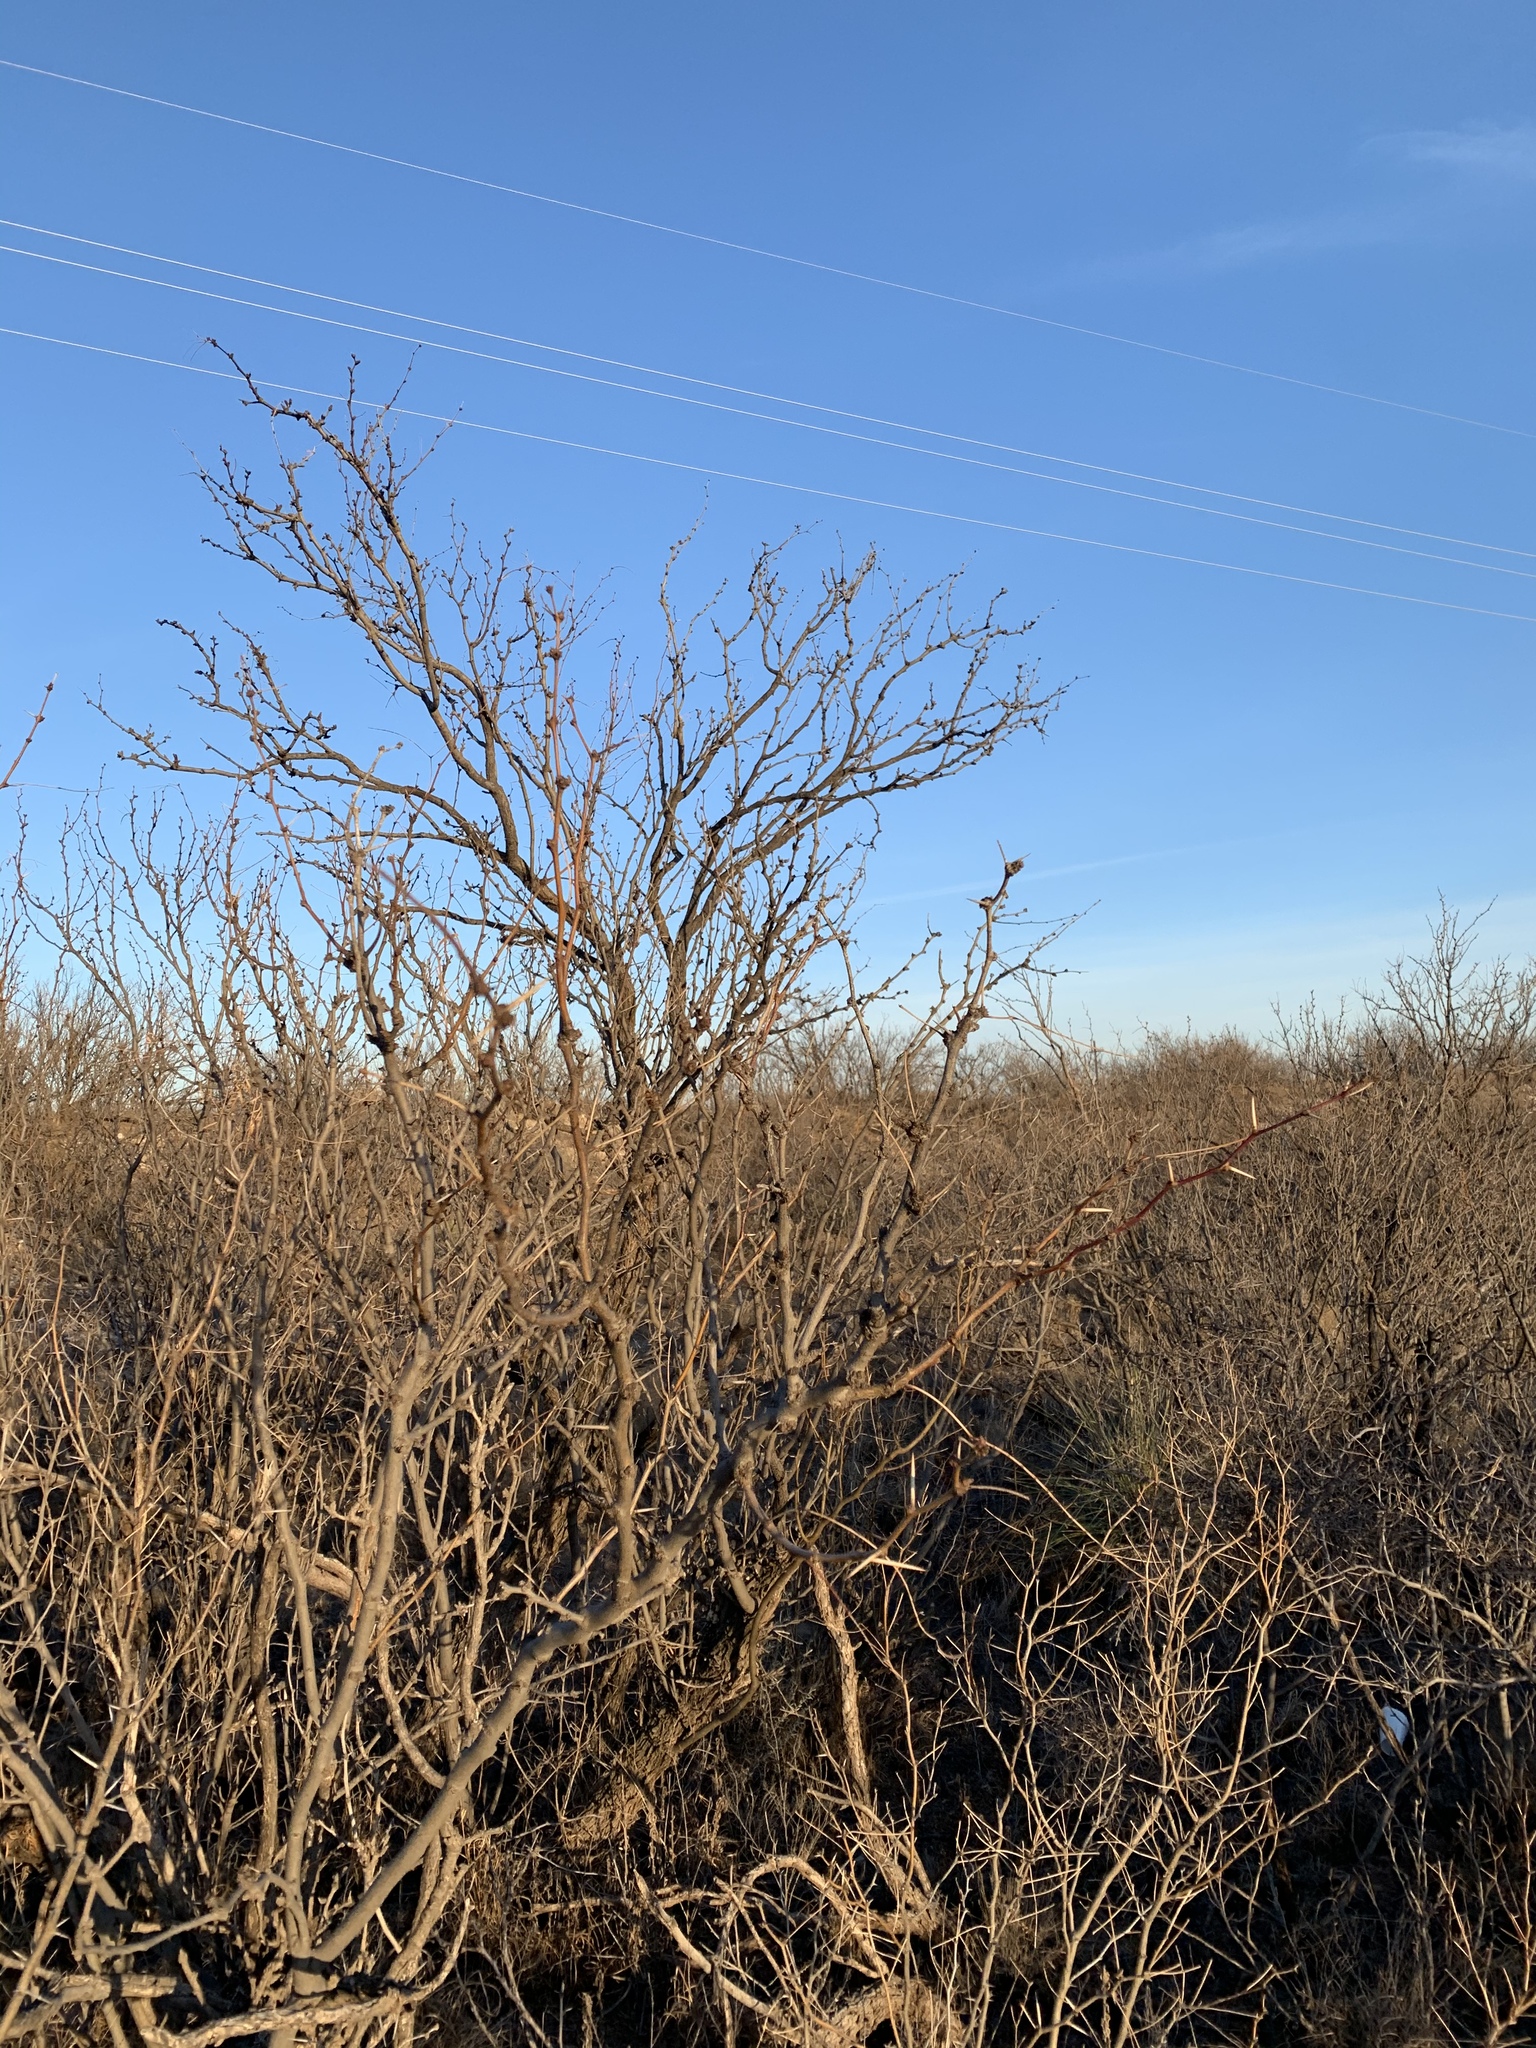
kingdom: Plantae
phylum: Tracheophyta
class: Magnoliopsida
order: Fabales
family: Fabaceae
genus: Prosopis
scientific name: Prosopis glandulosa
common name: Honey mesquite
